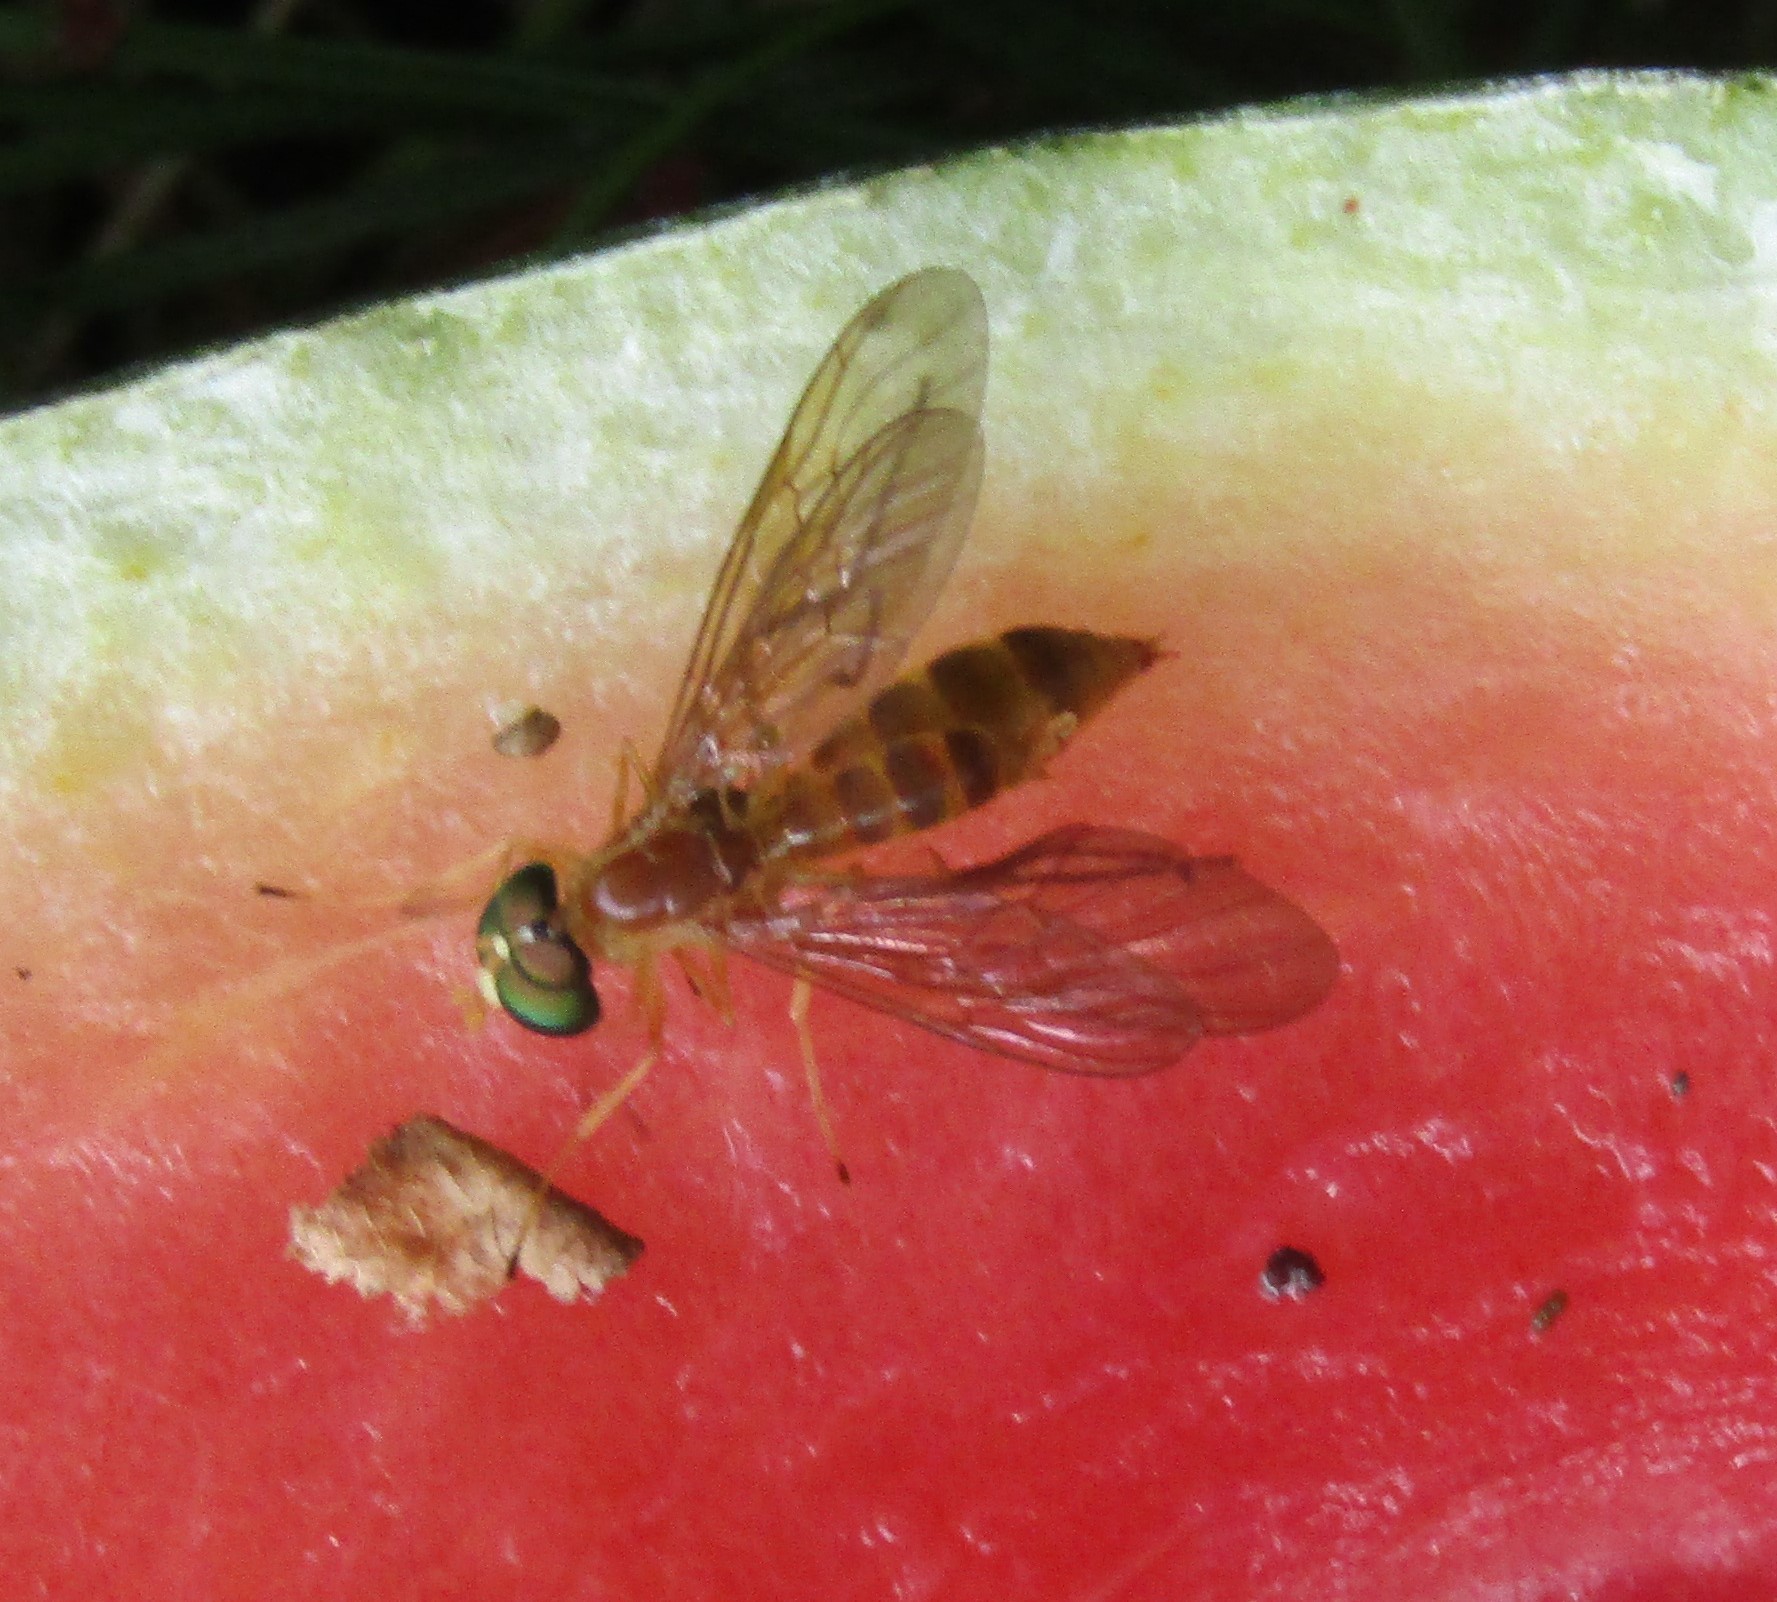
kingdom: Animalia
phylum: Arthropoda
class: Insecta
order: Diptera
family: Stratiomyidae
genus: Ptecticus
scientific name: Ptecticus trivittatus
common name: Compost fly
